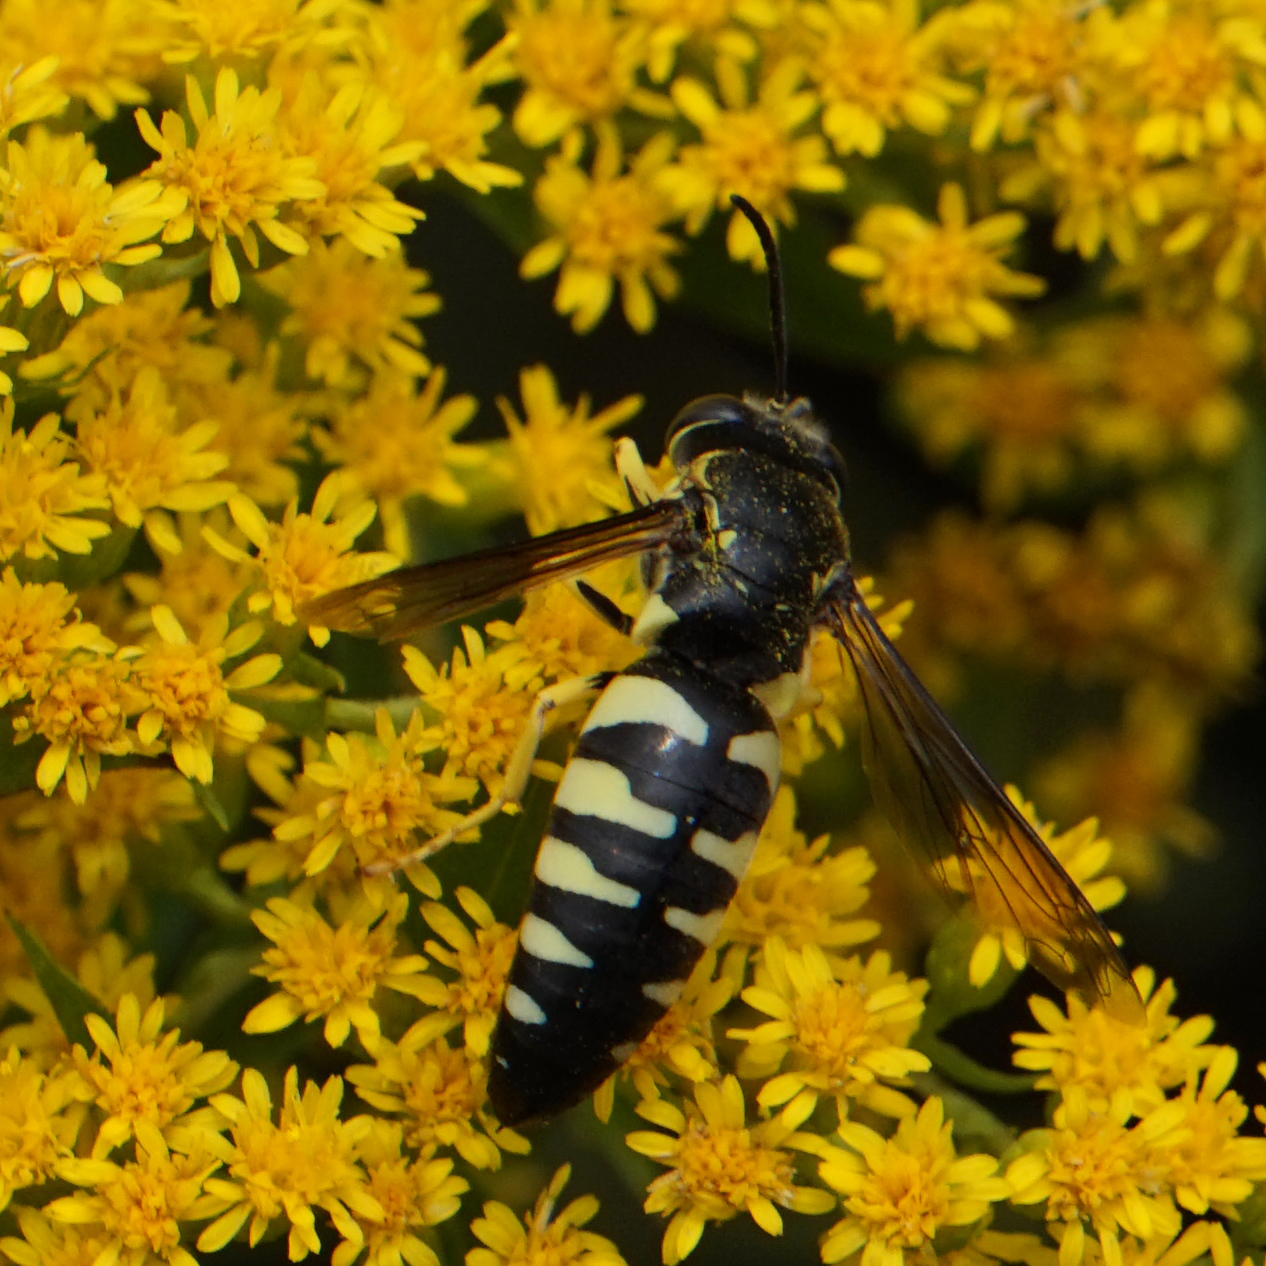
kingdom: Animalia
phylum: Arthropoda
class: Insecta
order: Hymenoptera
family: Crabronidae
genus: Bicyrtes
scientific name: Bicyrtes quadrifasciatus
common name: Four-banded stink bug hunter wasp
